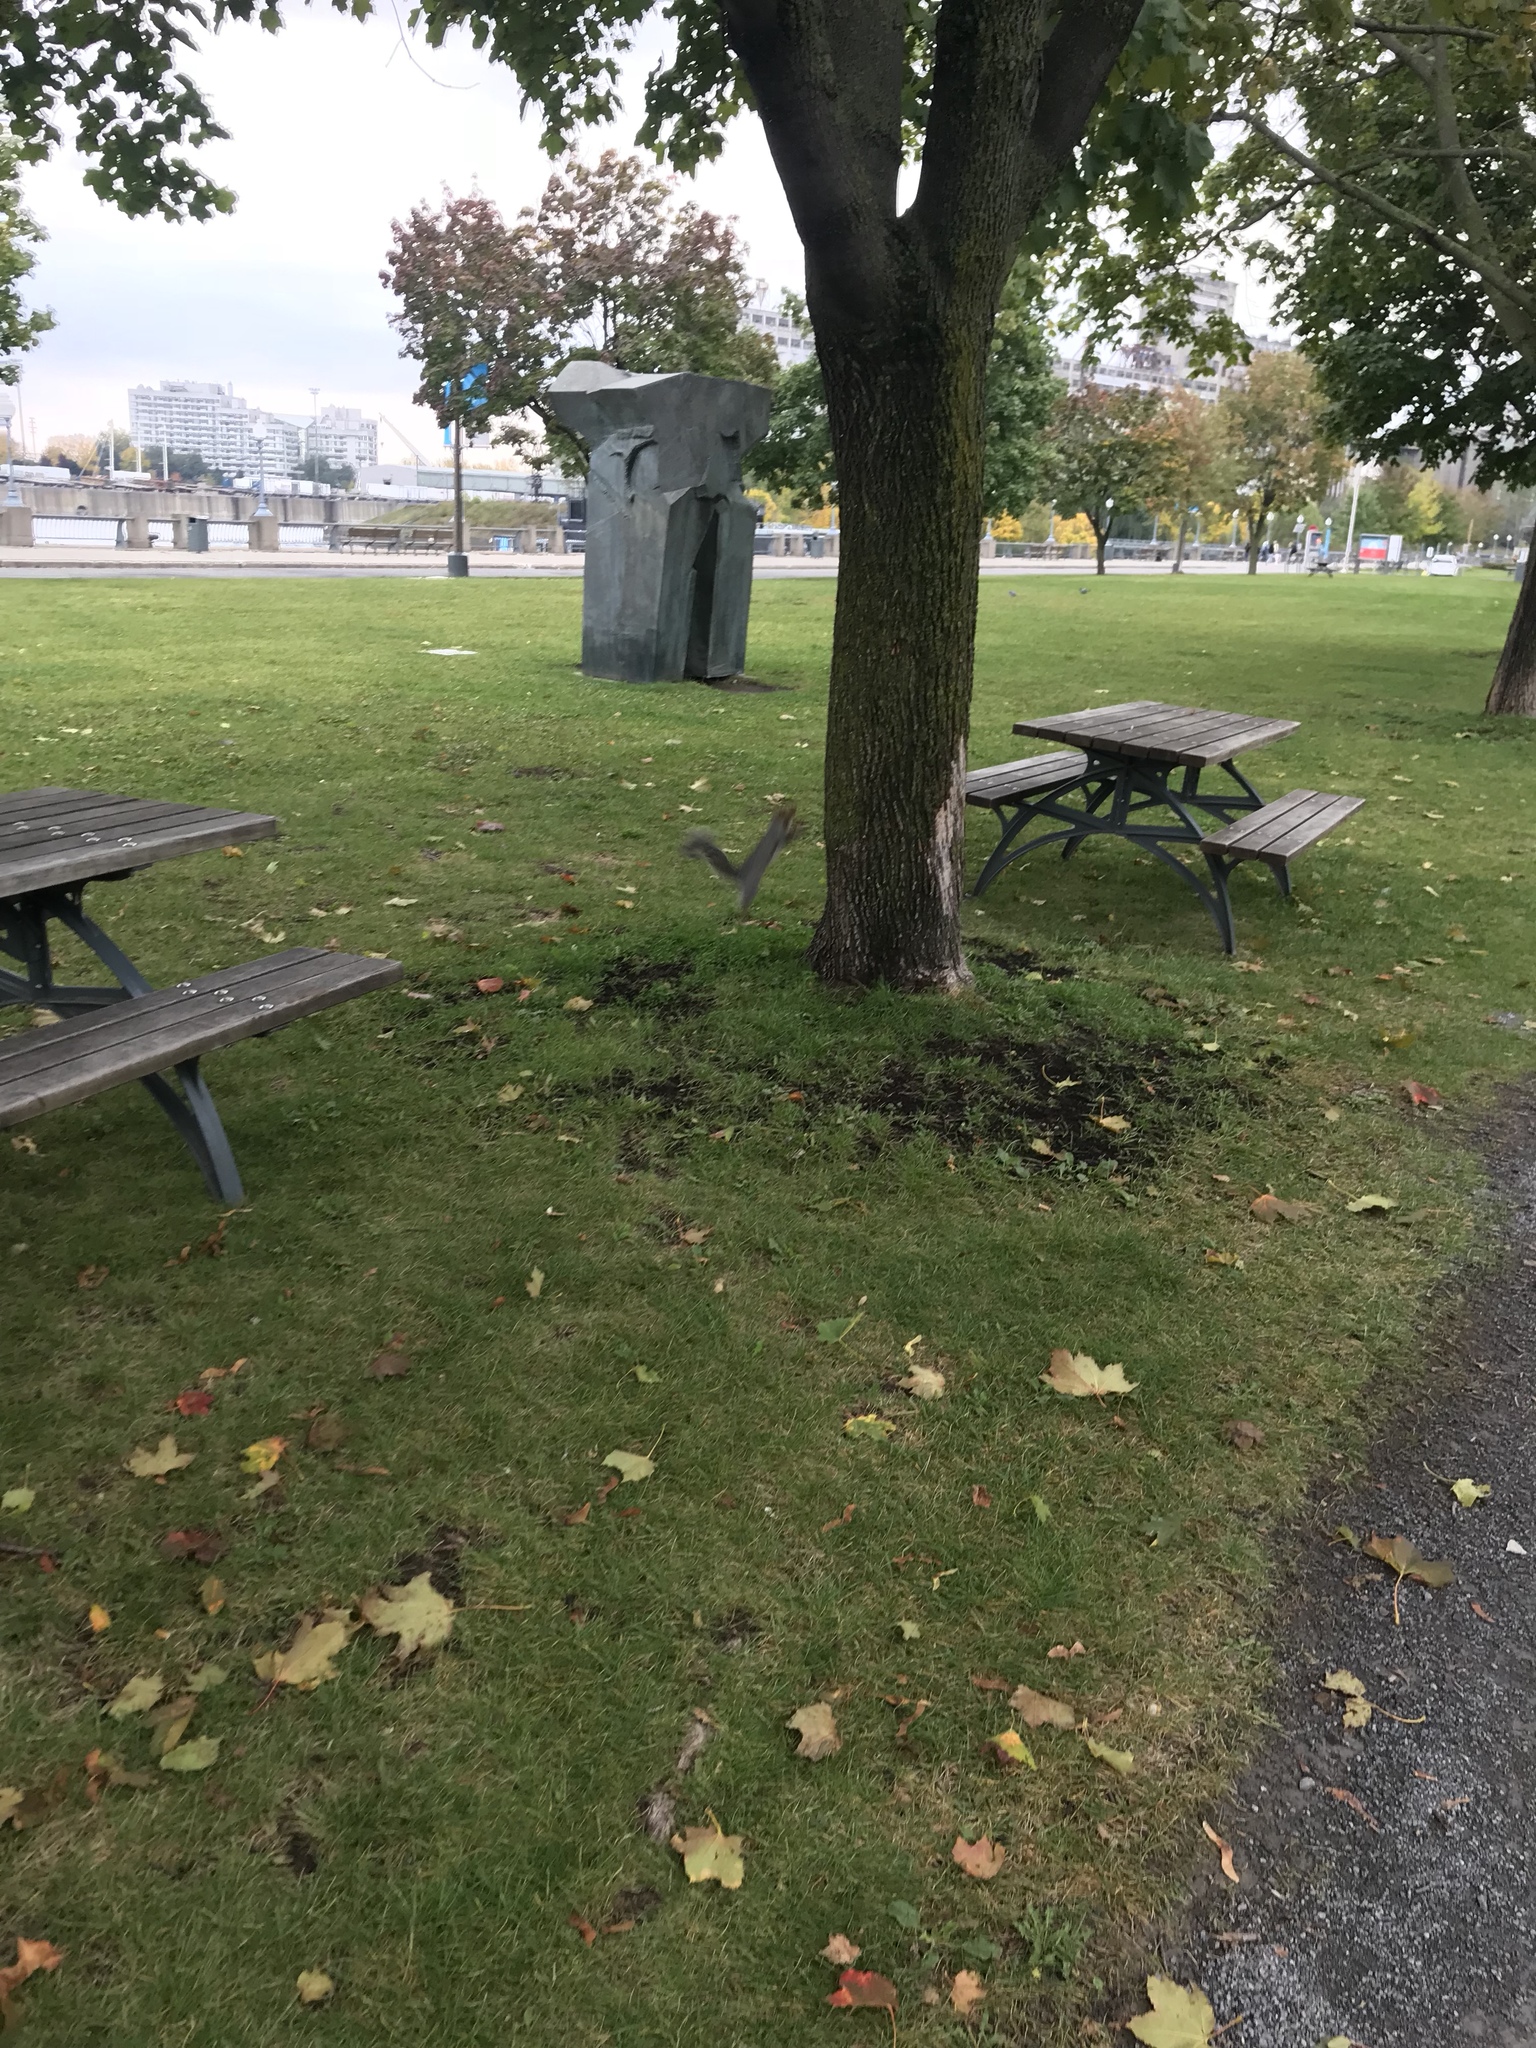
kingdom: Animalia
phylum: Chordata
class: Mammalia
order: Rodentia
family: Sciuridae
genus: Sciurus
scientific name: Sciurus carolinensis
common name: Eastern gray squirrel
